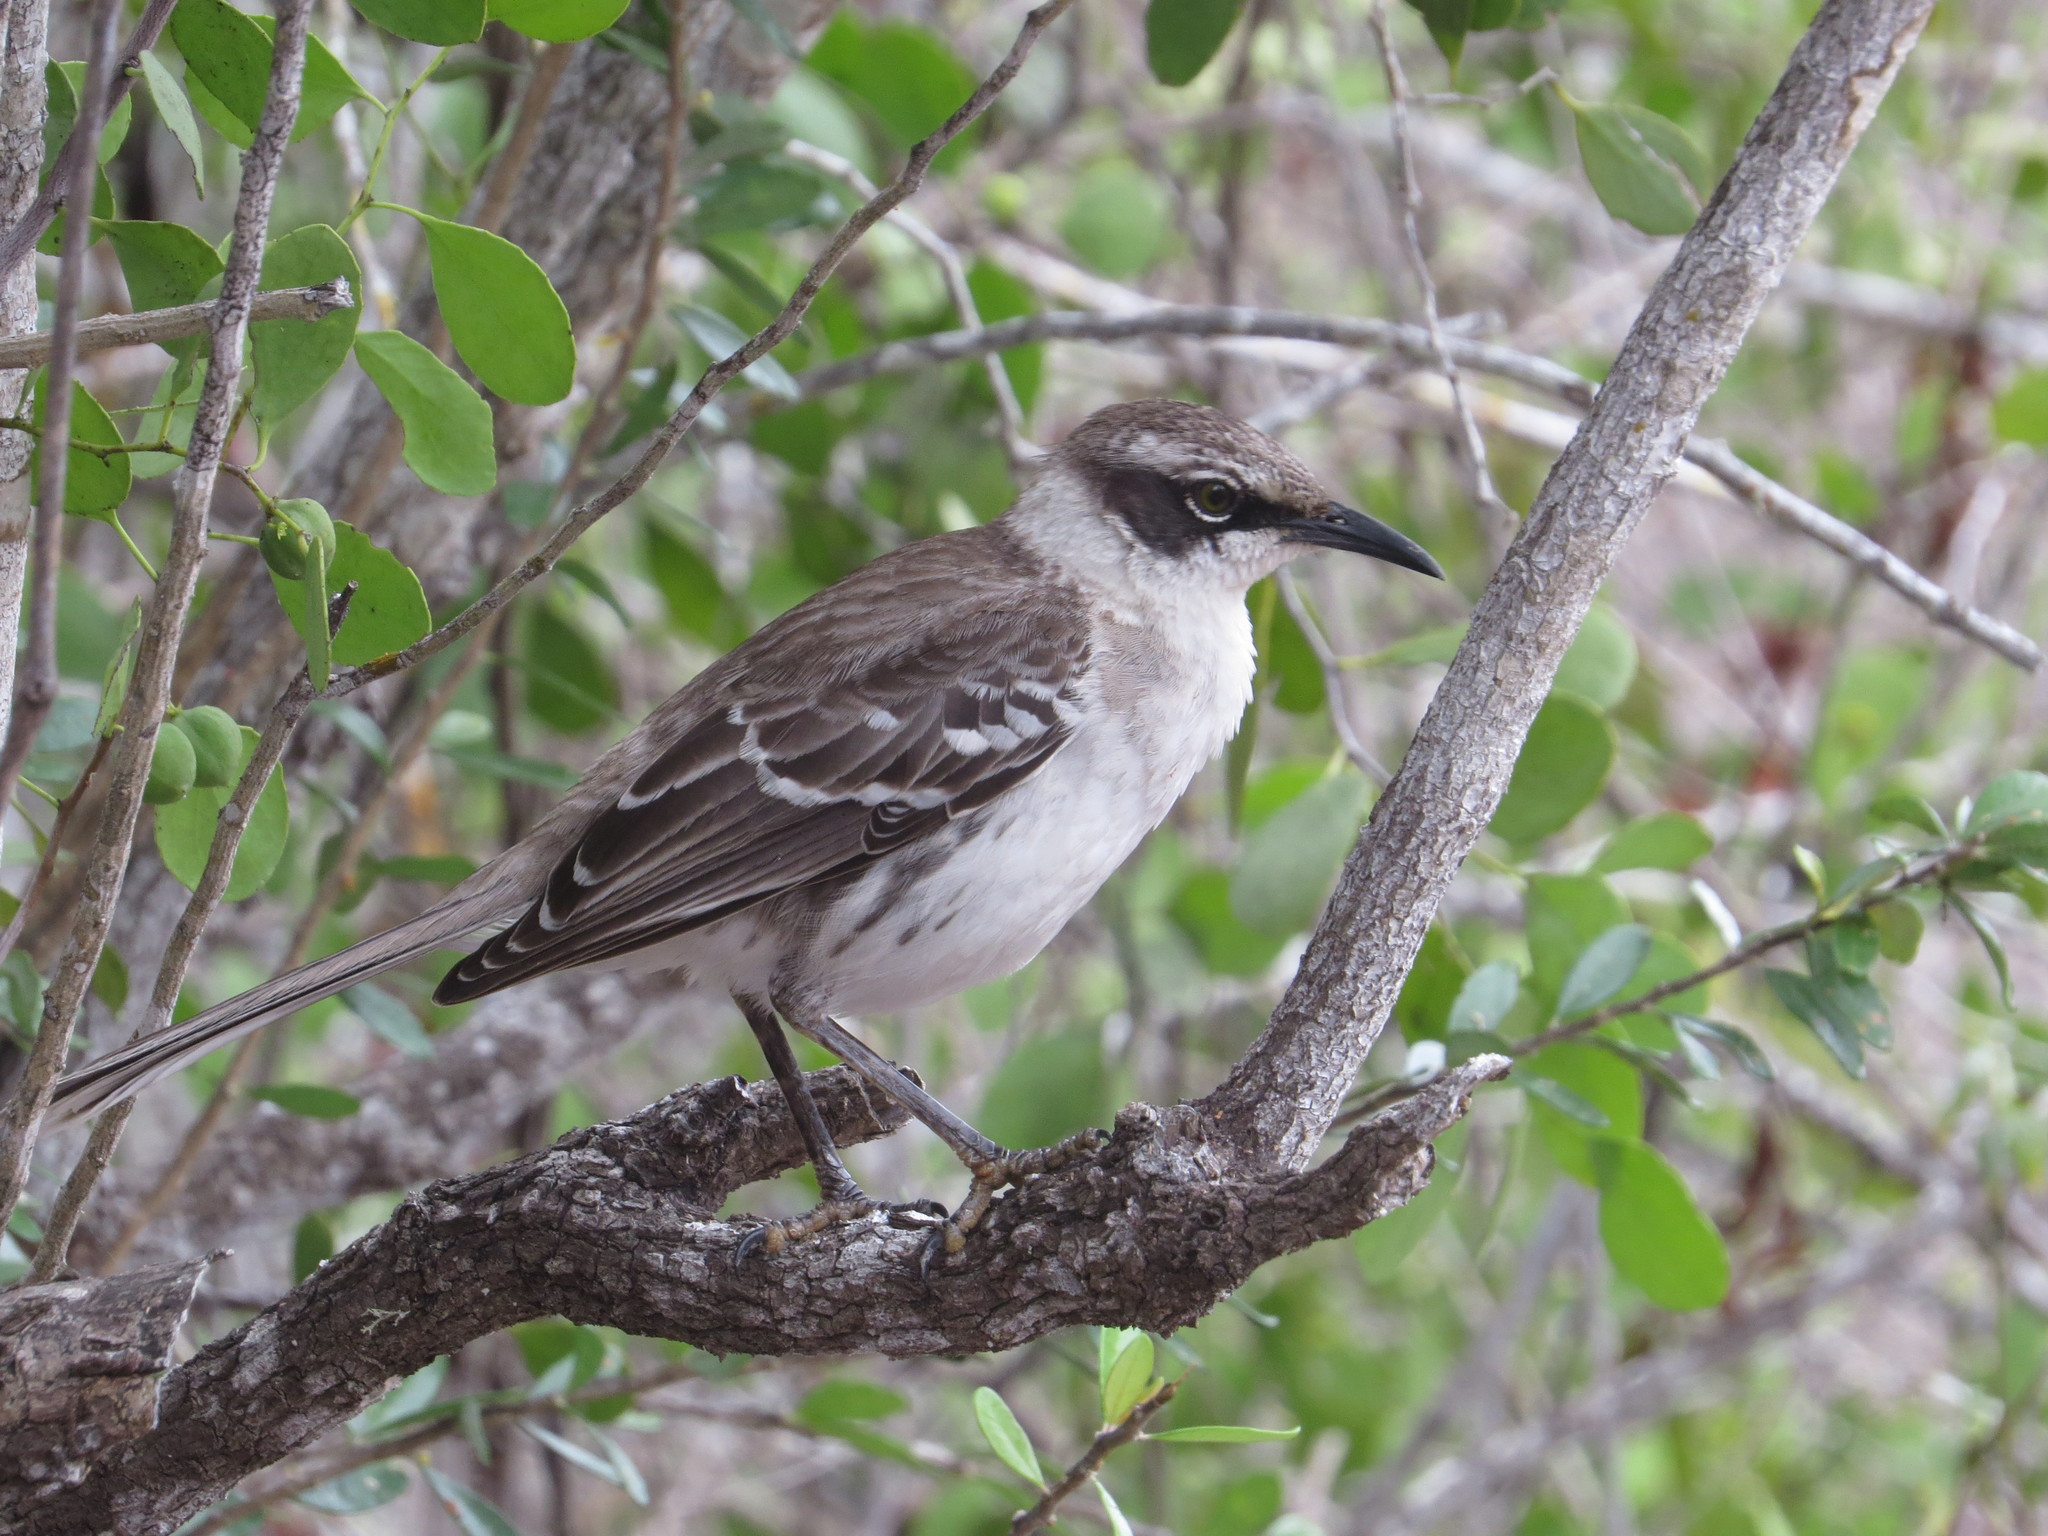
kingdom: Animalia
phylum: Chordata
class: Aves
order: Passeriformes
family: Mimidae
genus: Mimus
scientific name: Mimus parvulus
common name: Galapagos mockingbird
